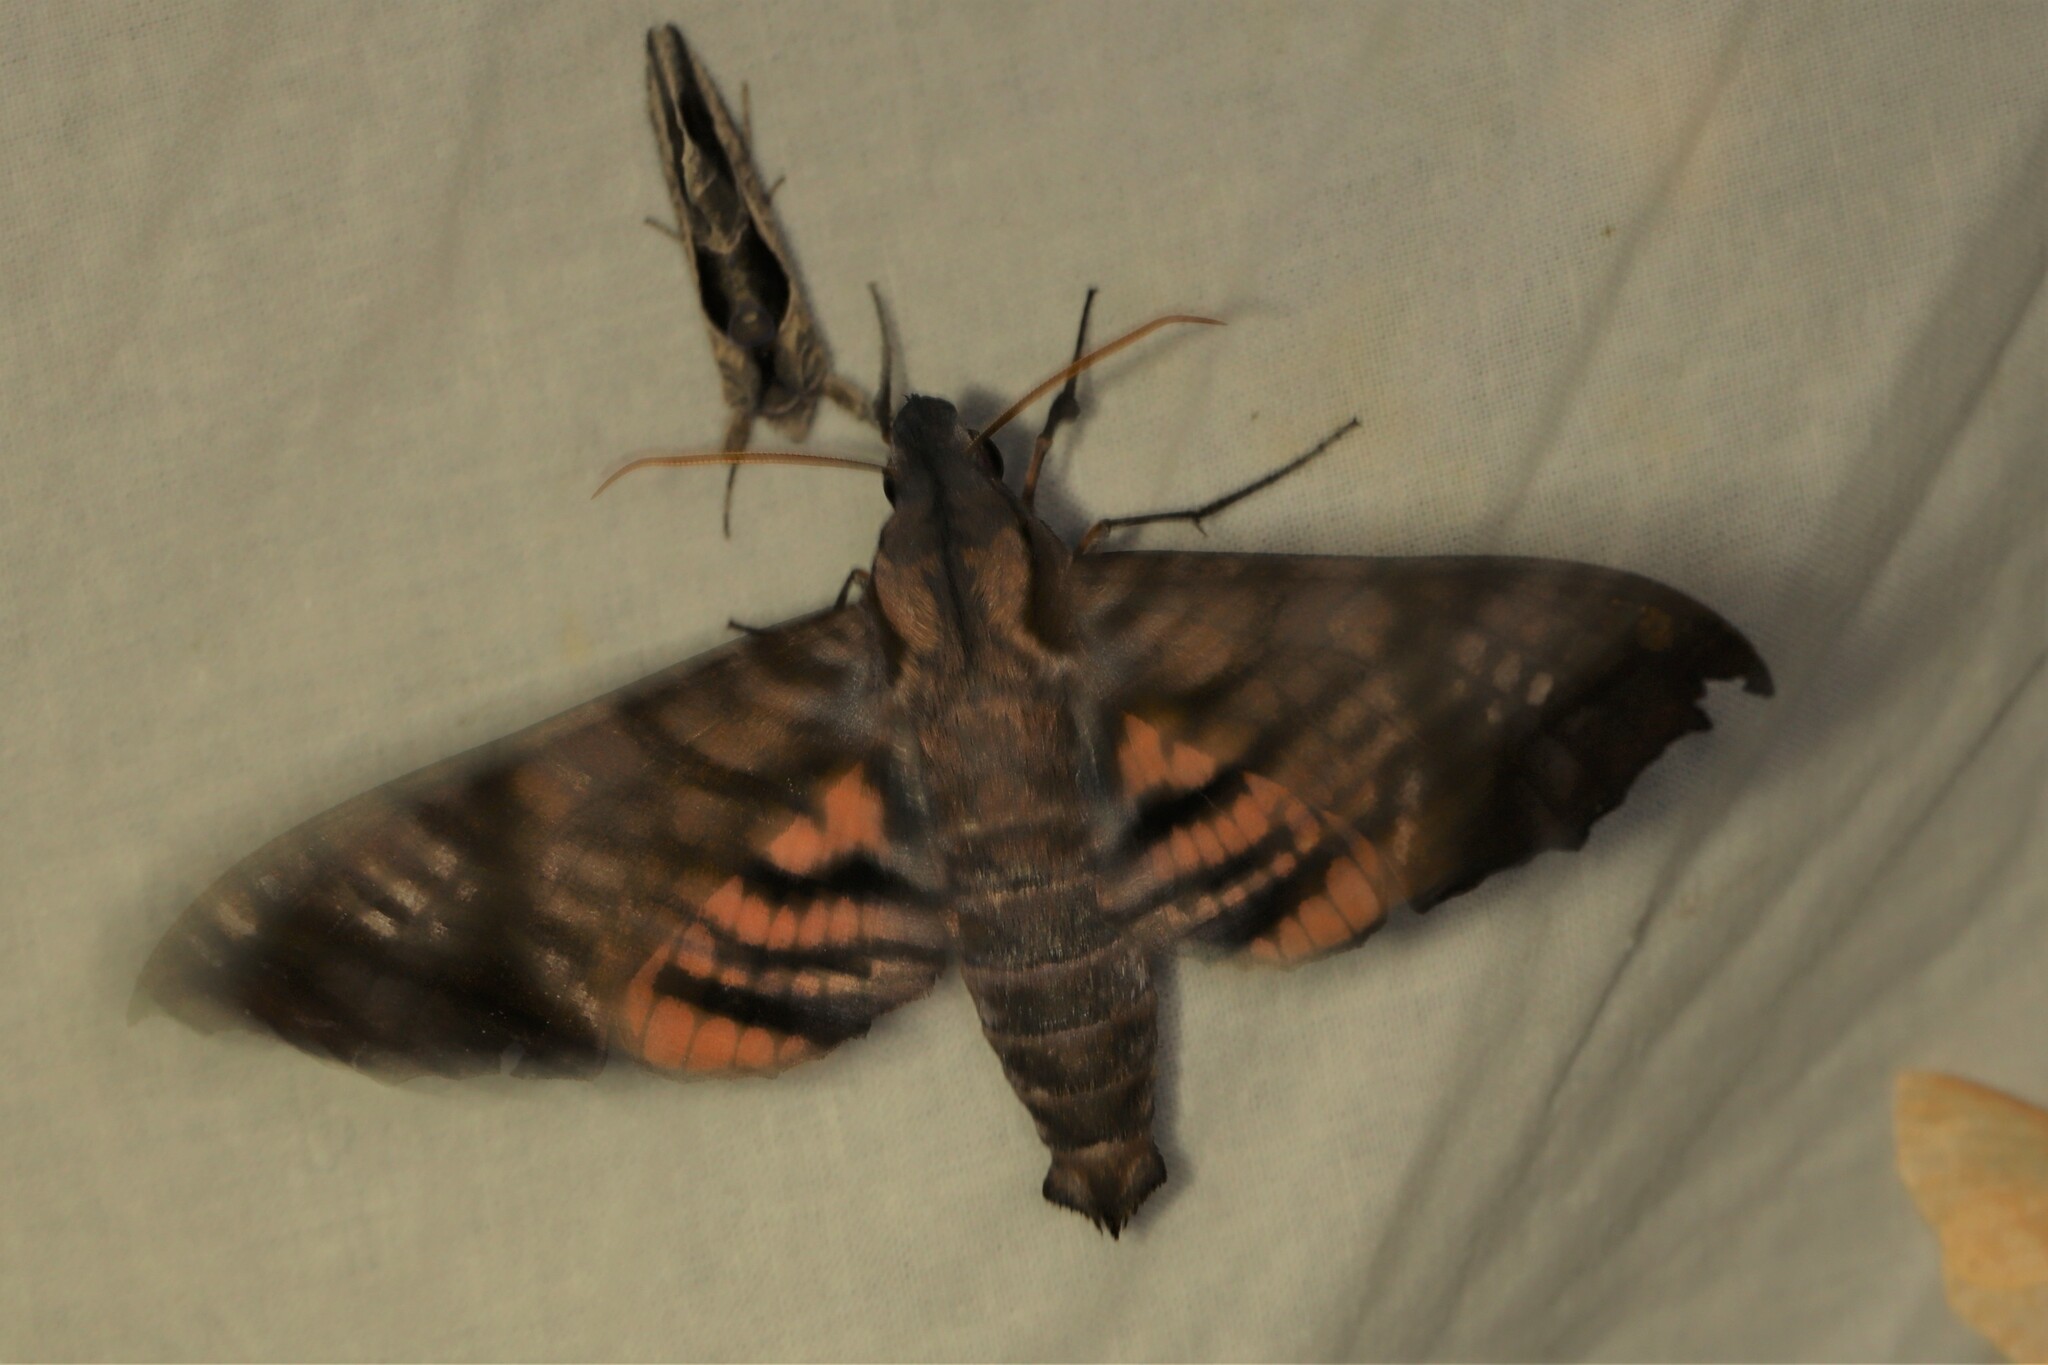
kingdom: Animalia
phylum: Arthropoda
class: Insecta
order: Lepidoptera
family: Sphingidae
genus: Nyceryx
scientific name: Nyceryx hyposticta
